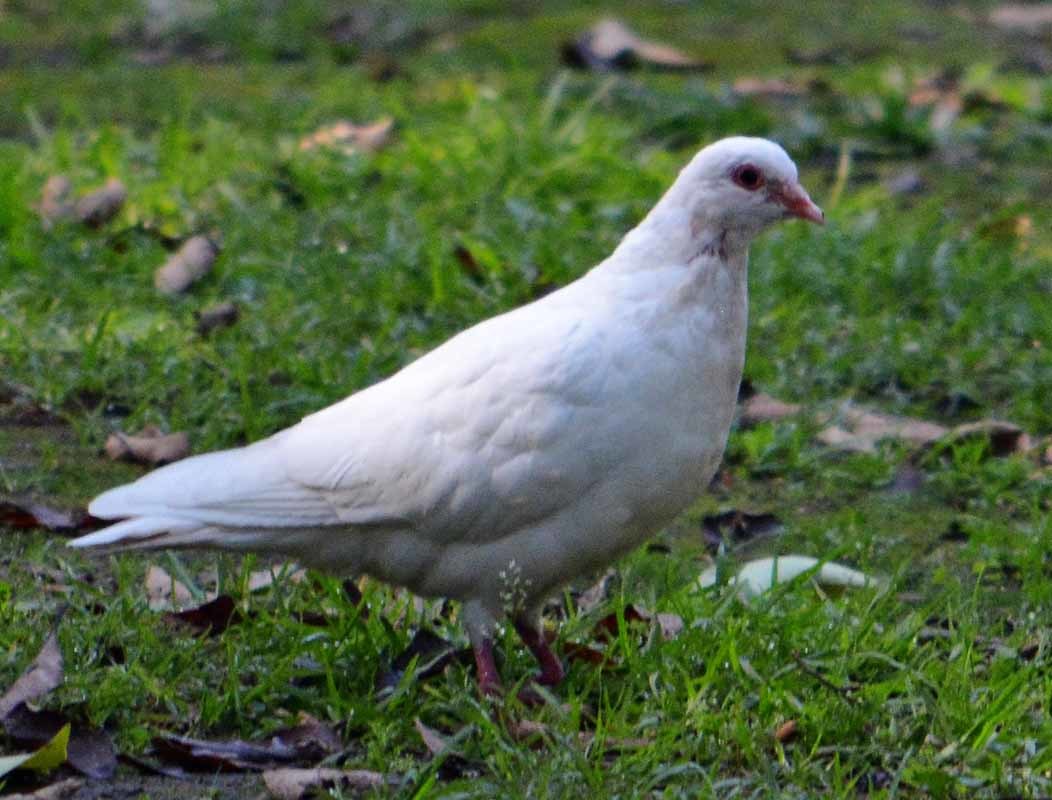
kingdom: Animalia
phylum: Chordata
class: Aves
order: Columbiformes
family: Columbidae
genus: Columba
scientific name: Columba livia
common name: Rock pigeon
